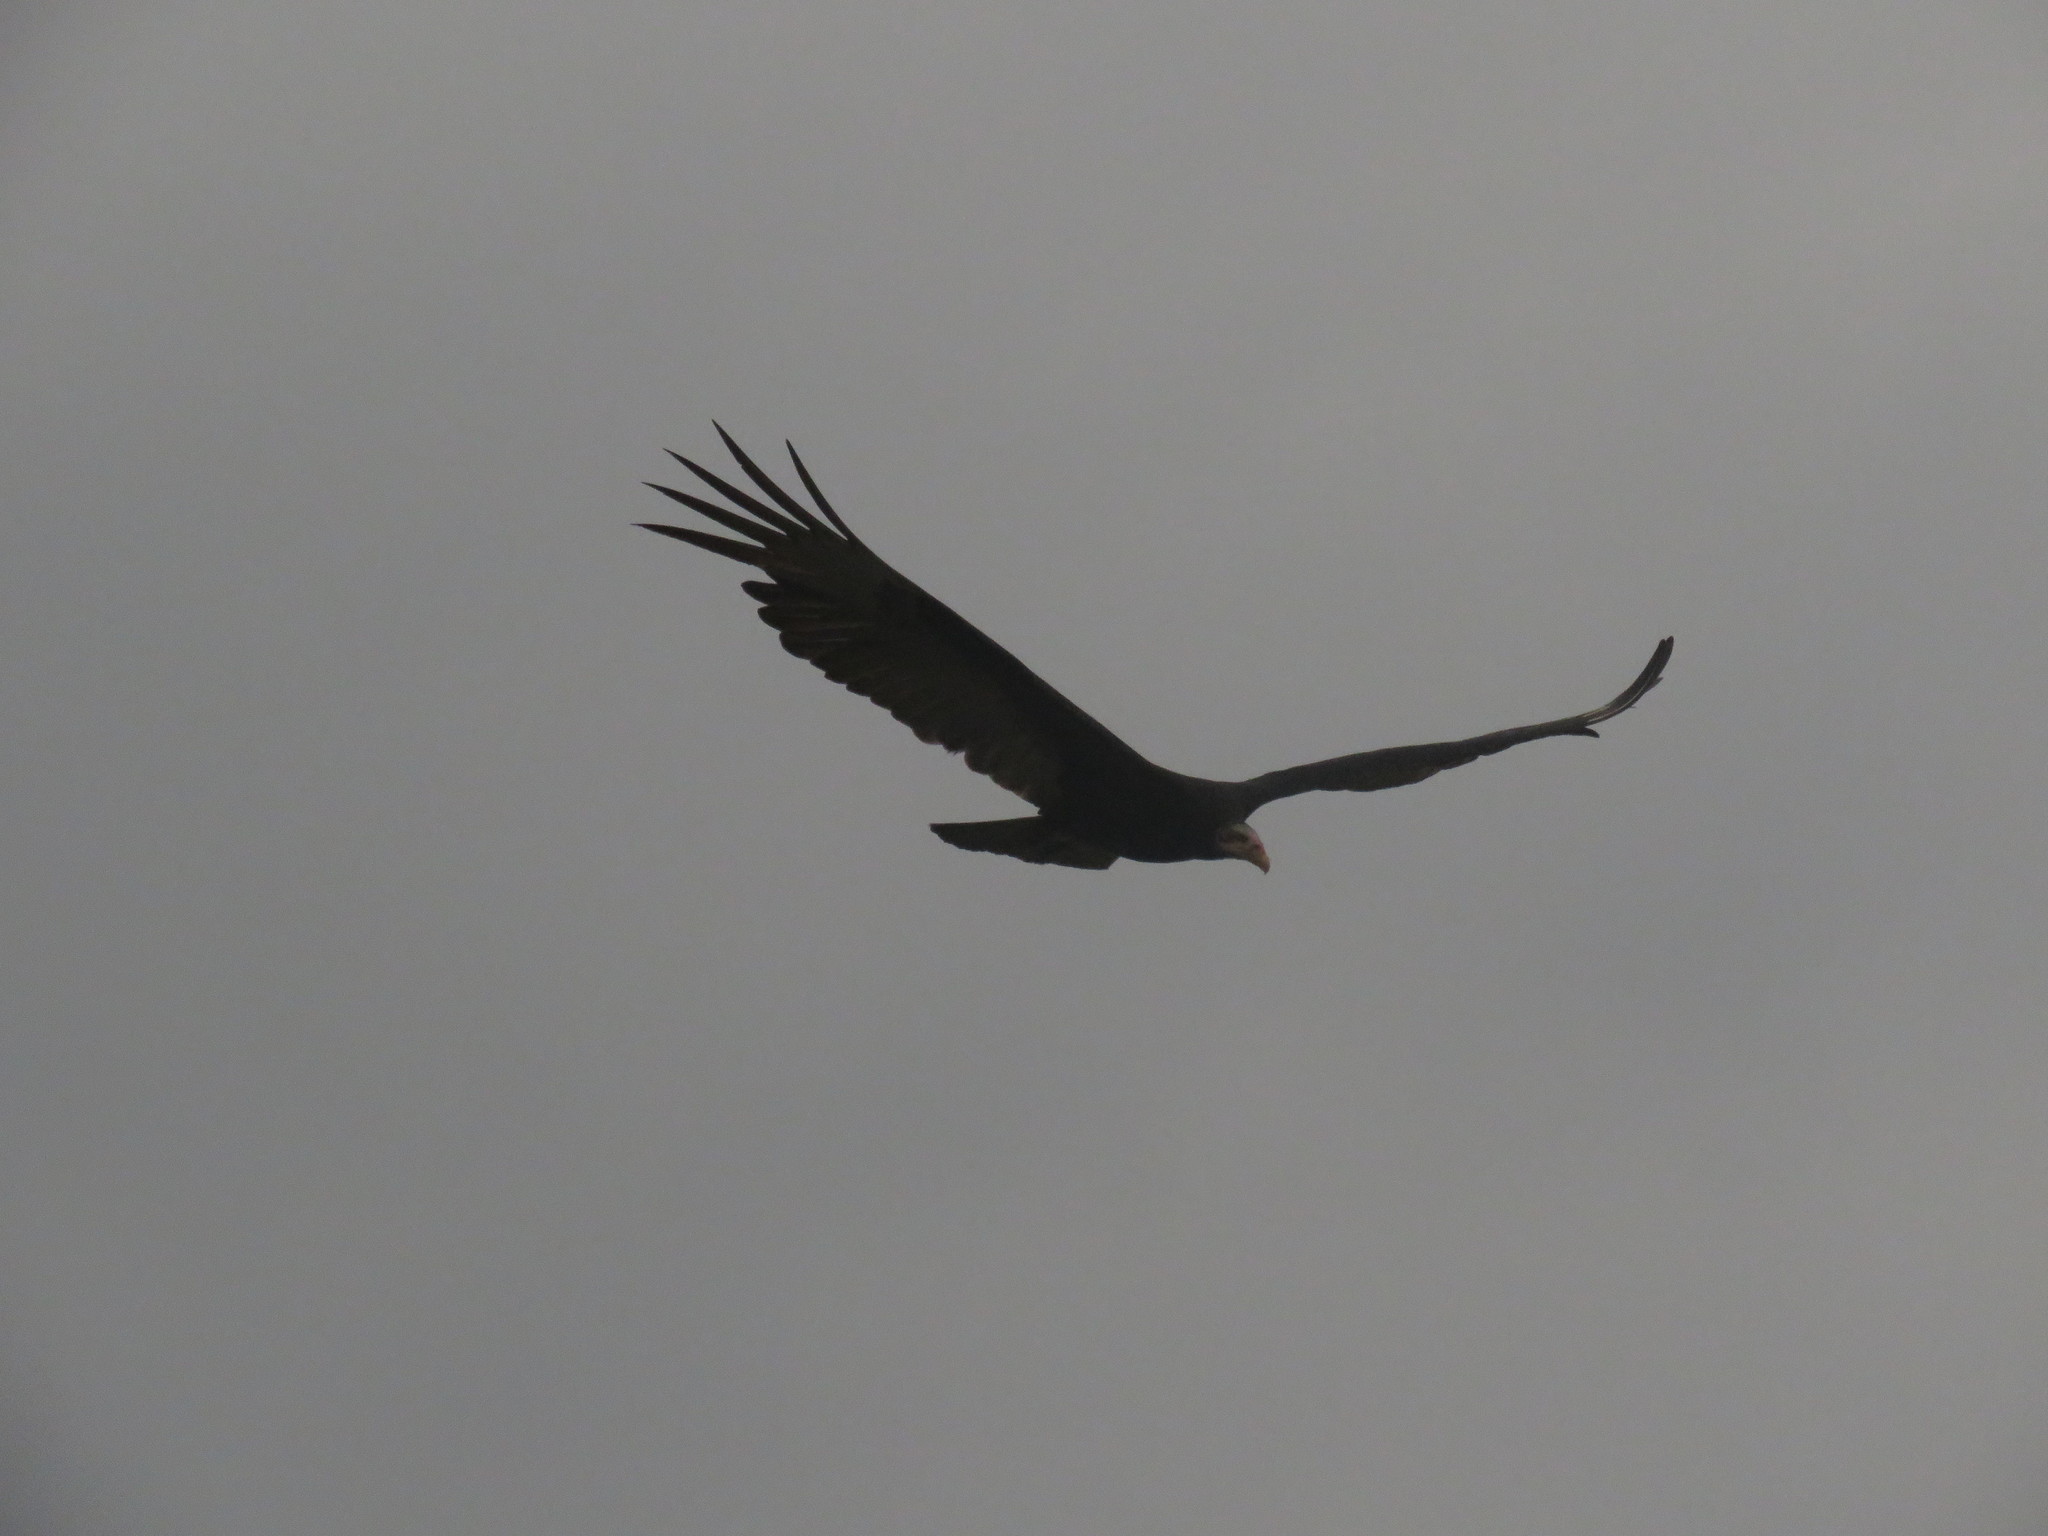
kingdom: Animalia
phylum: Chordata
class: Aves
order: Accipitriformes
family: Cathartidae
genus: Cathartes
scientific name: Cathartes burrovianus
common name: Lesser yellow-headed vulture
